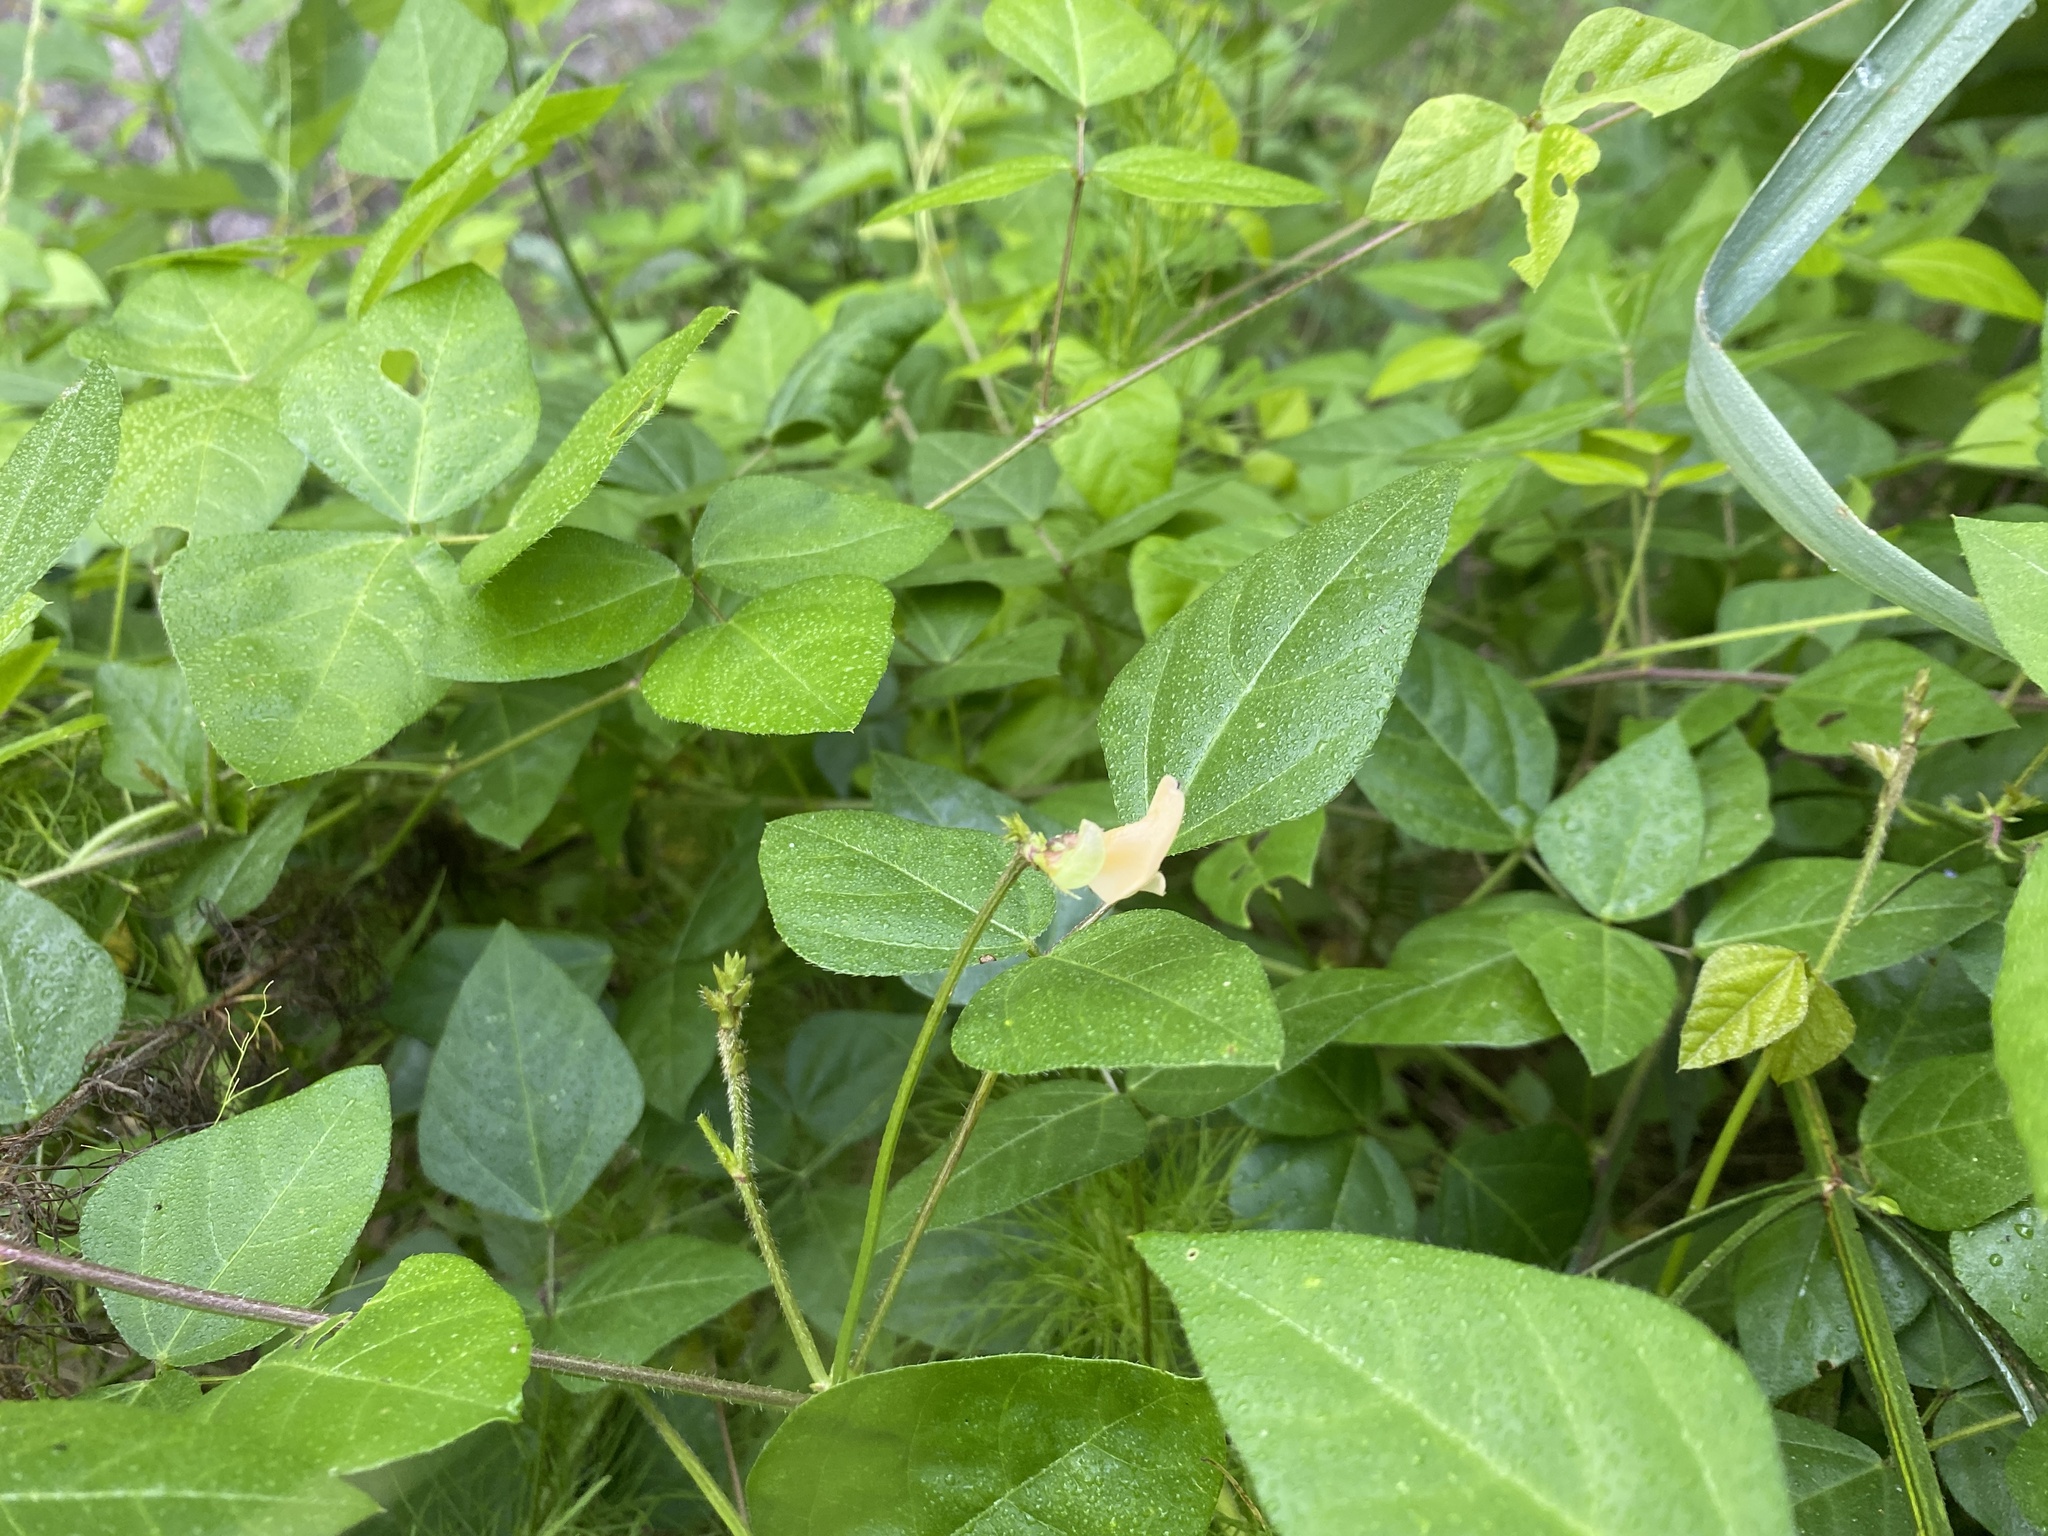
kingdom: Plantae
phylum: Tracheophyta
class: Magnoliopsida
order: Fabales
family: Fabaceae
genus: Strophostyles
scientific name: Strophostyles helvola
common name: Trailing wild bean
